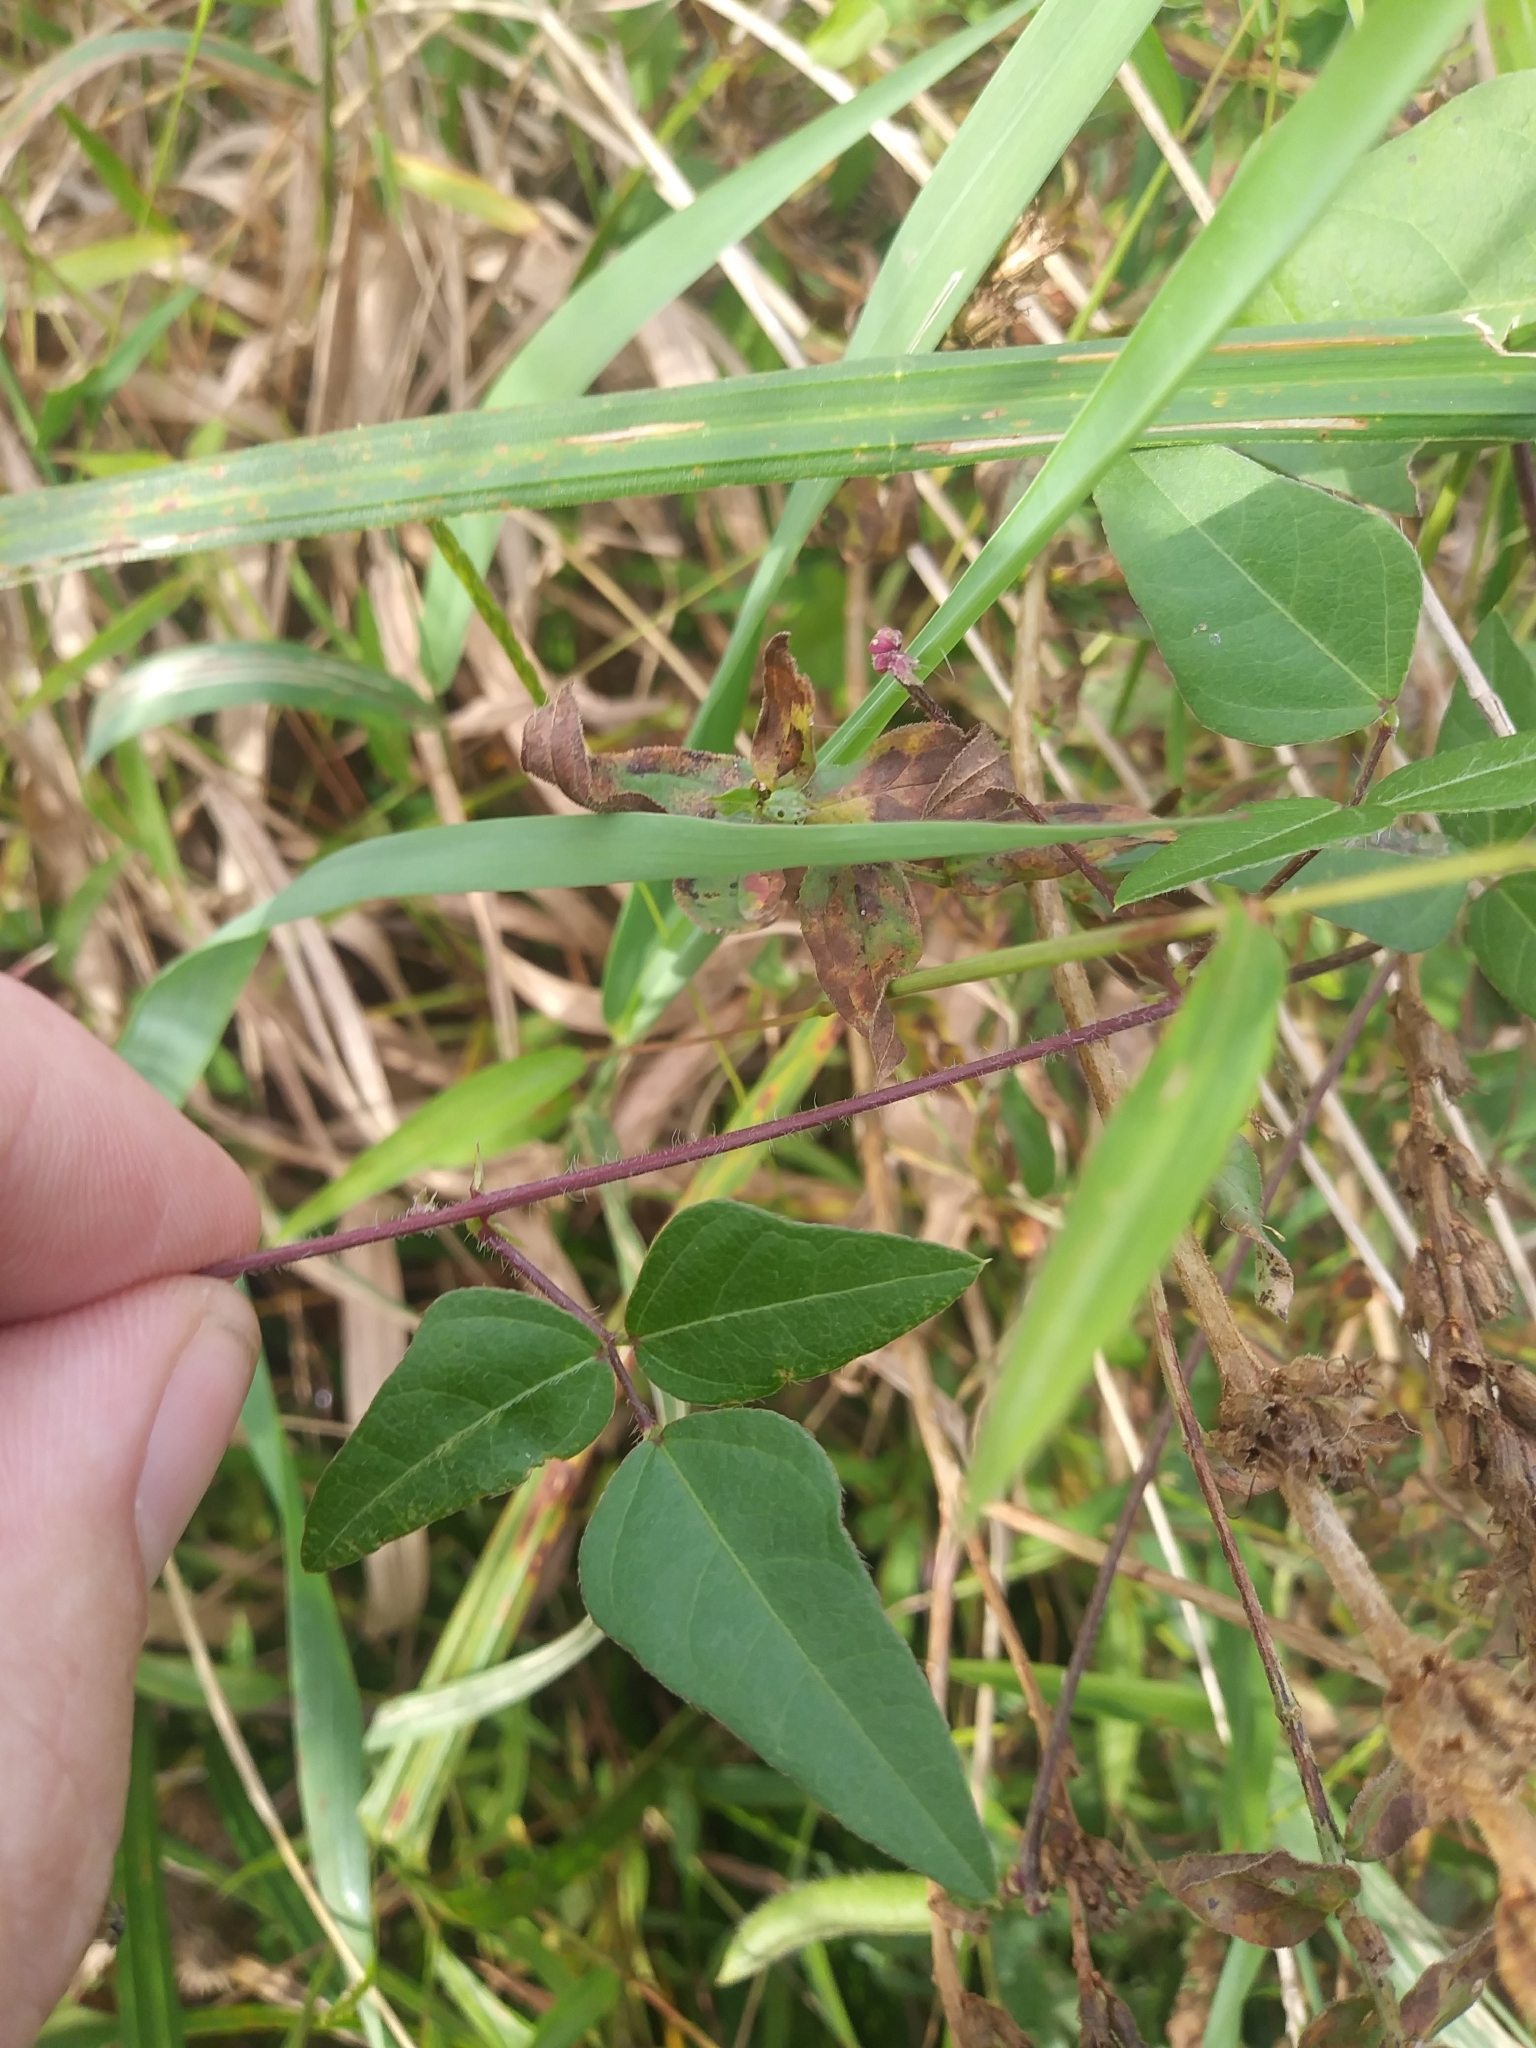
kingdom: Plantae
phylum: Tracheophyta
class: Magnoliopsida
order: Fabales
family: Fabaceae
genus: Strophostyles
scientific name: Strophostyles helvola
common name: Trailing wild bean
